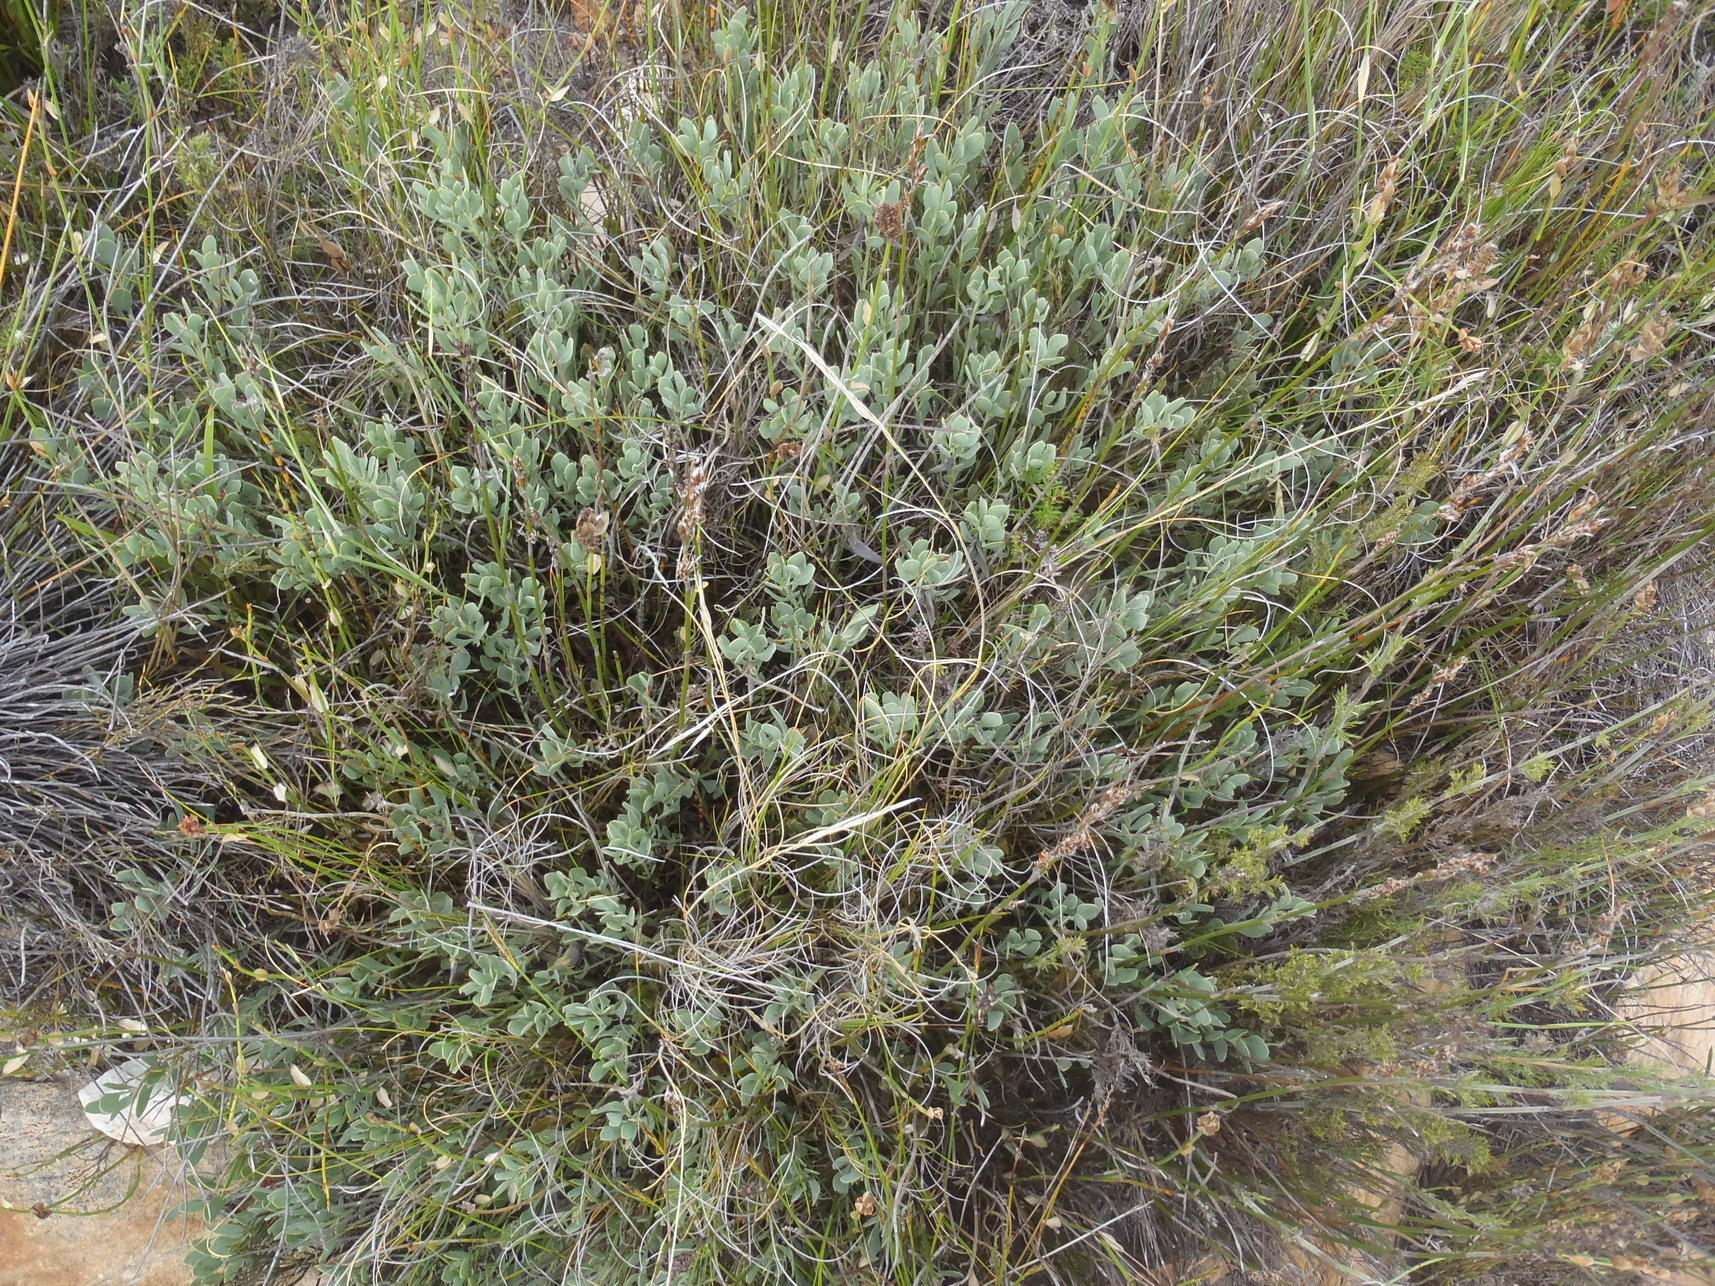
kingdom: Plantae
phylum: Tracheophyta
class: Magnoliopsida
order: Fabales
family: Fabaceae
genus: Rafnia
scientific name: Rafnia rostrata
